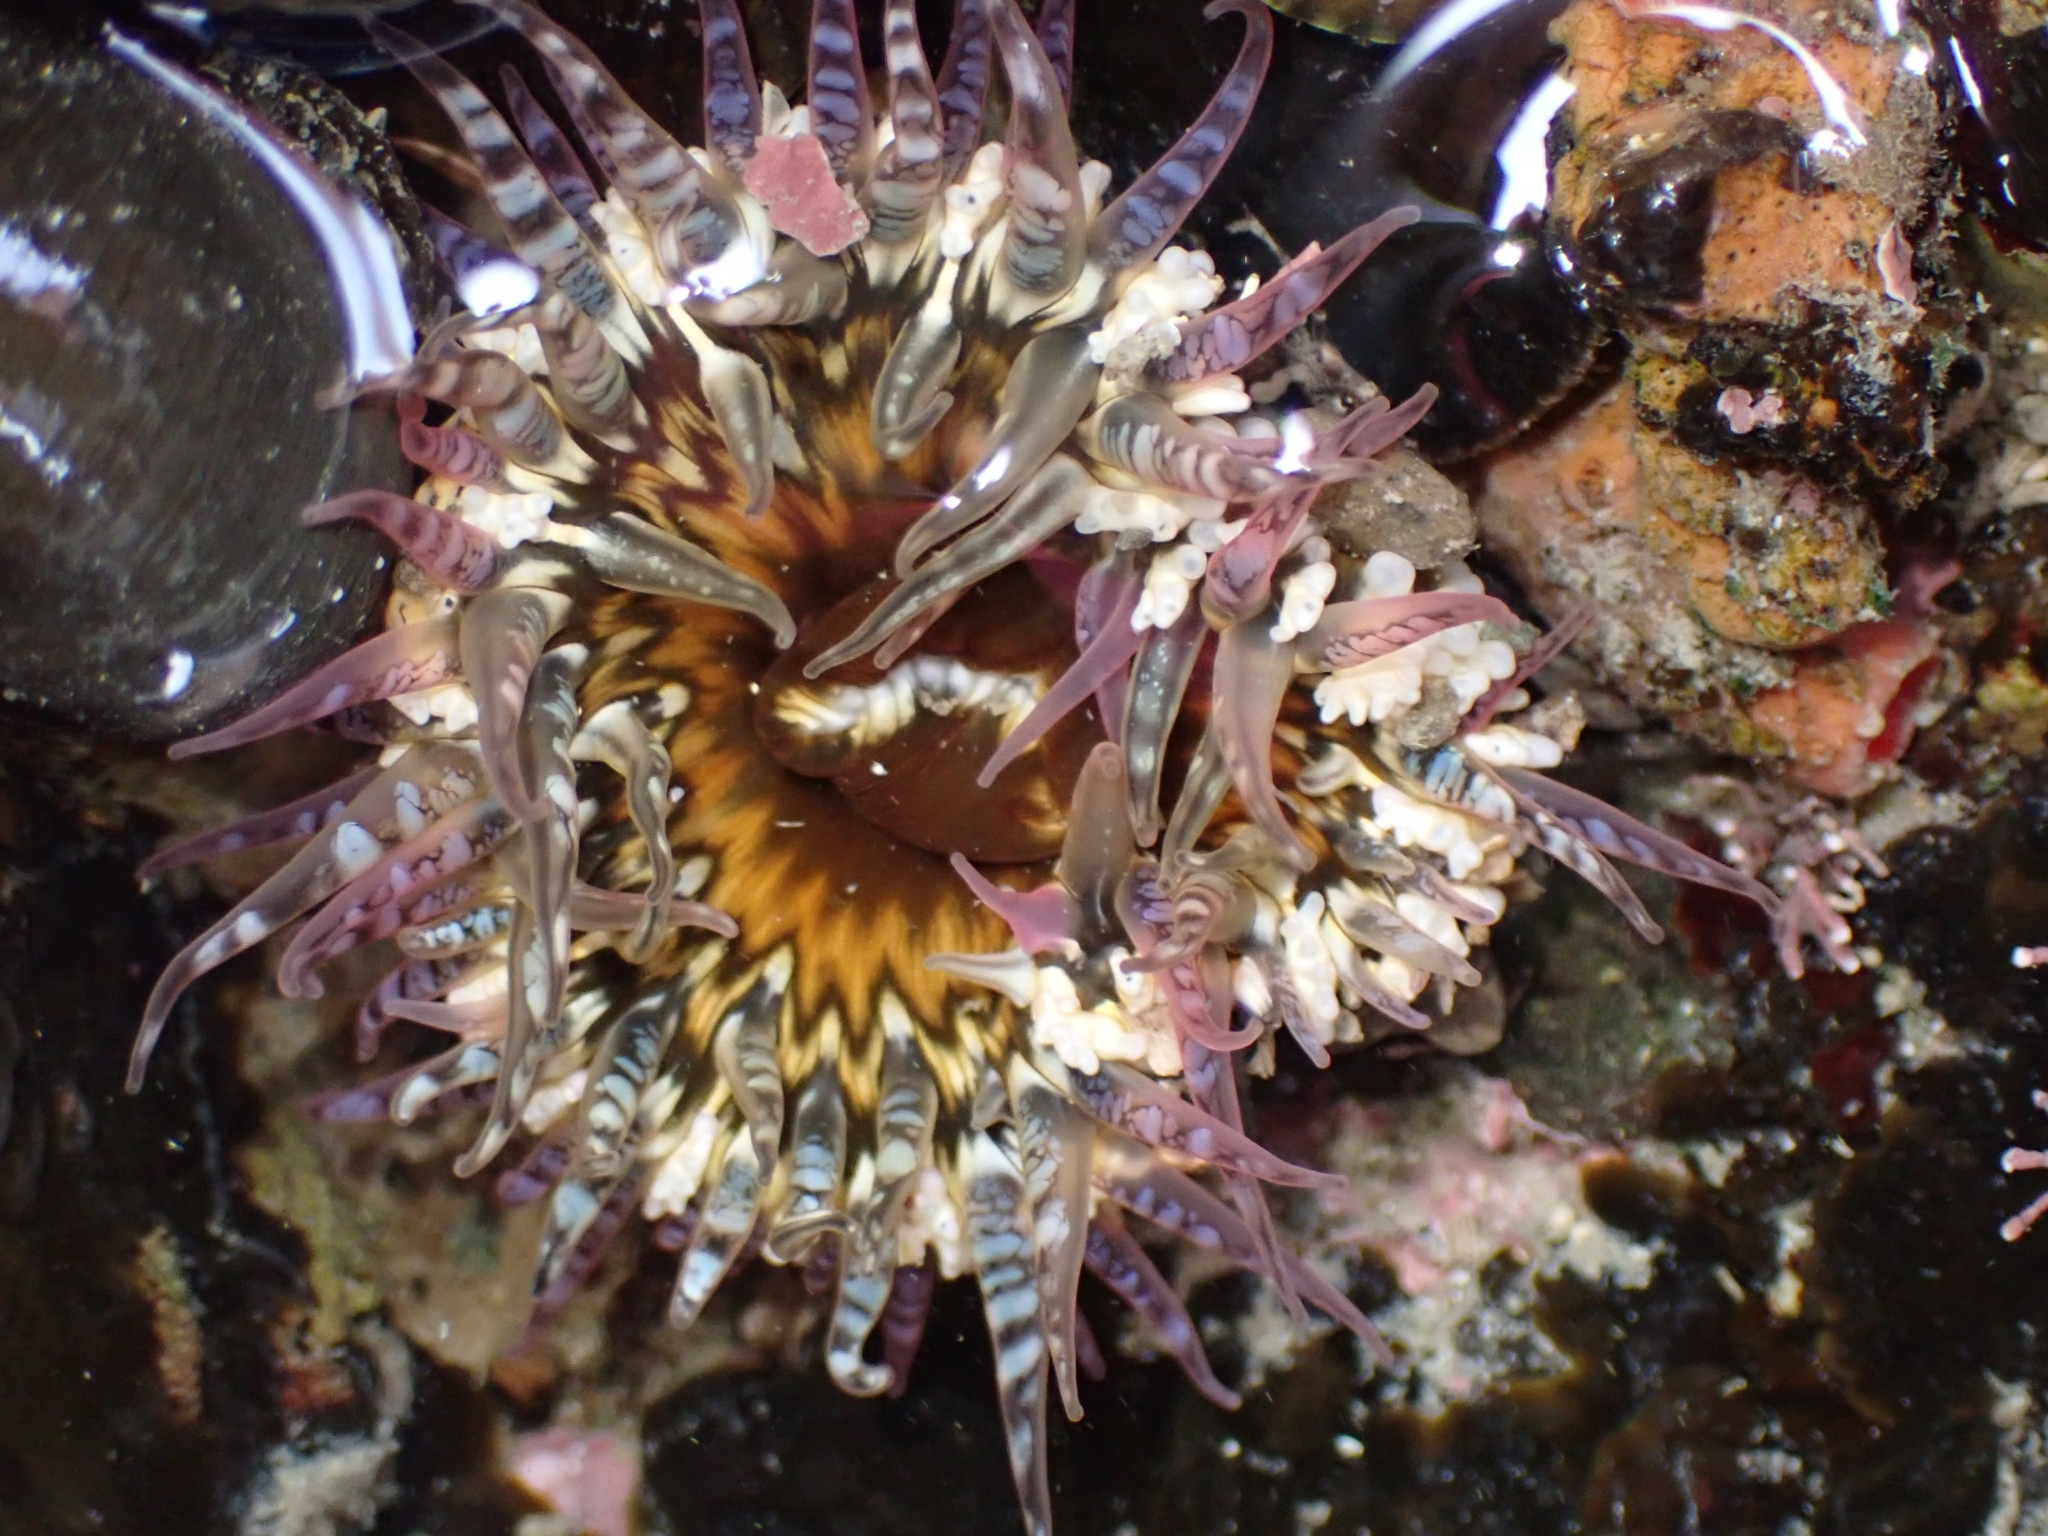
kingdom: Animalia
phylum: Cnidaria
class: Anthozoa
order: Actiniaria
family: Actiniidae
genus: Oulactis
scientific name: Oulactis muscosa
